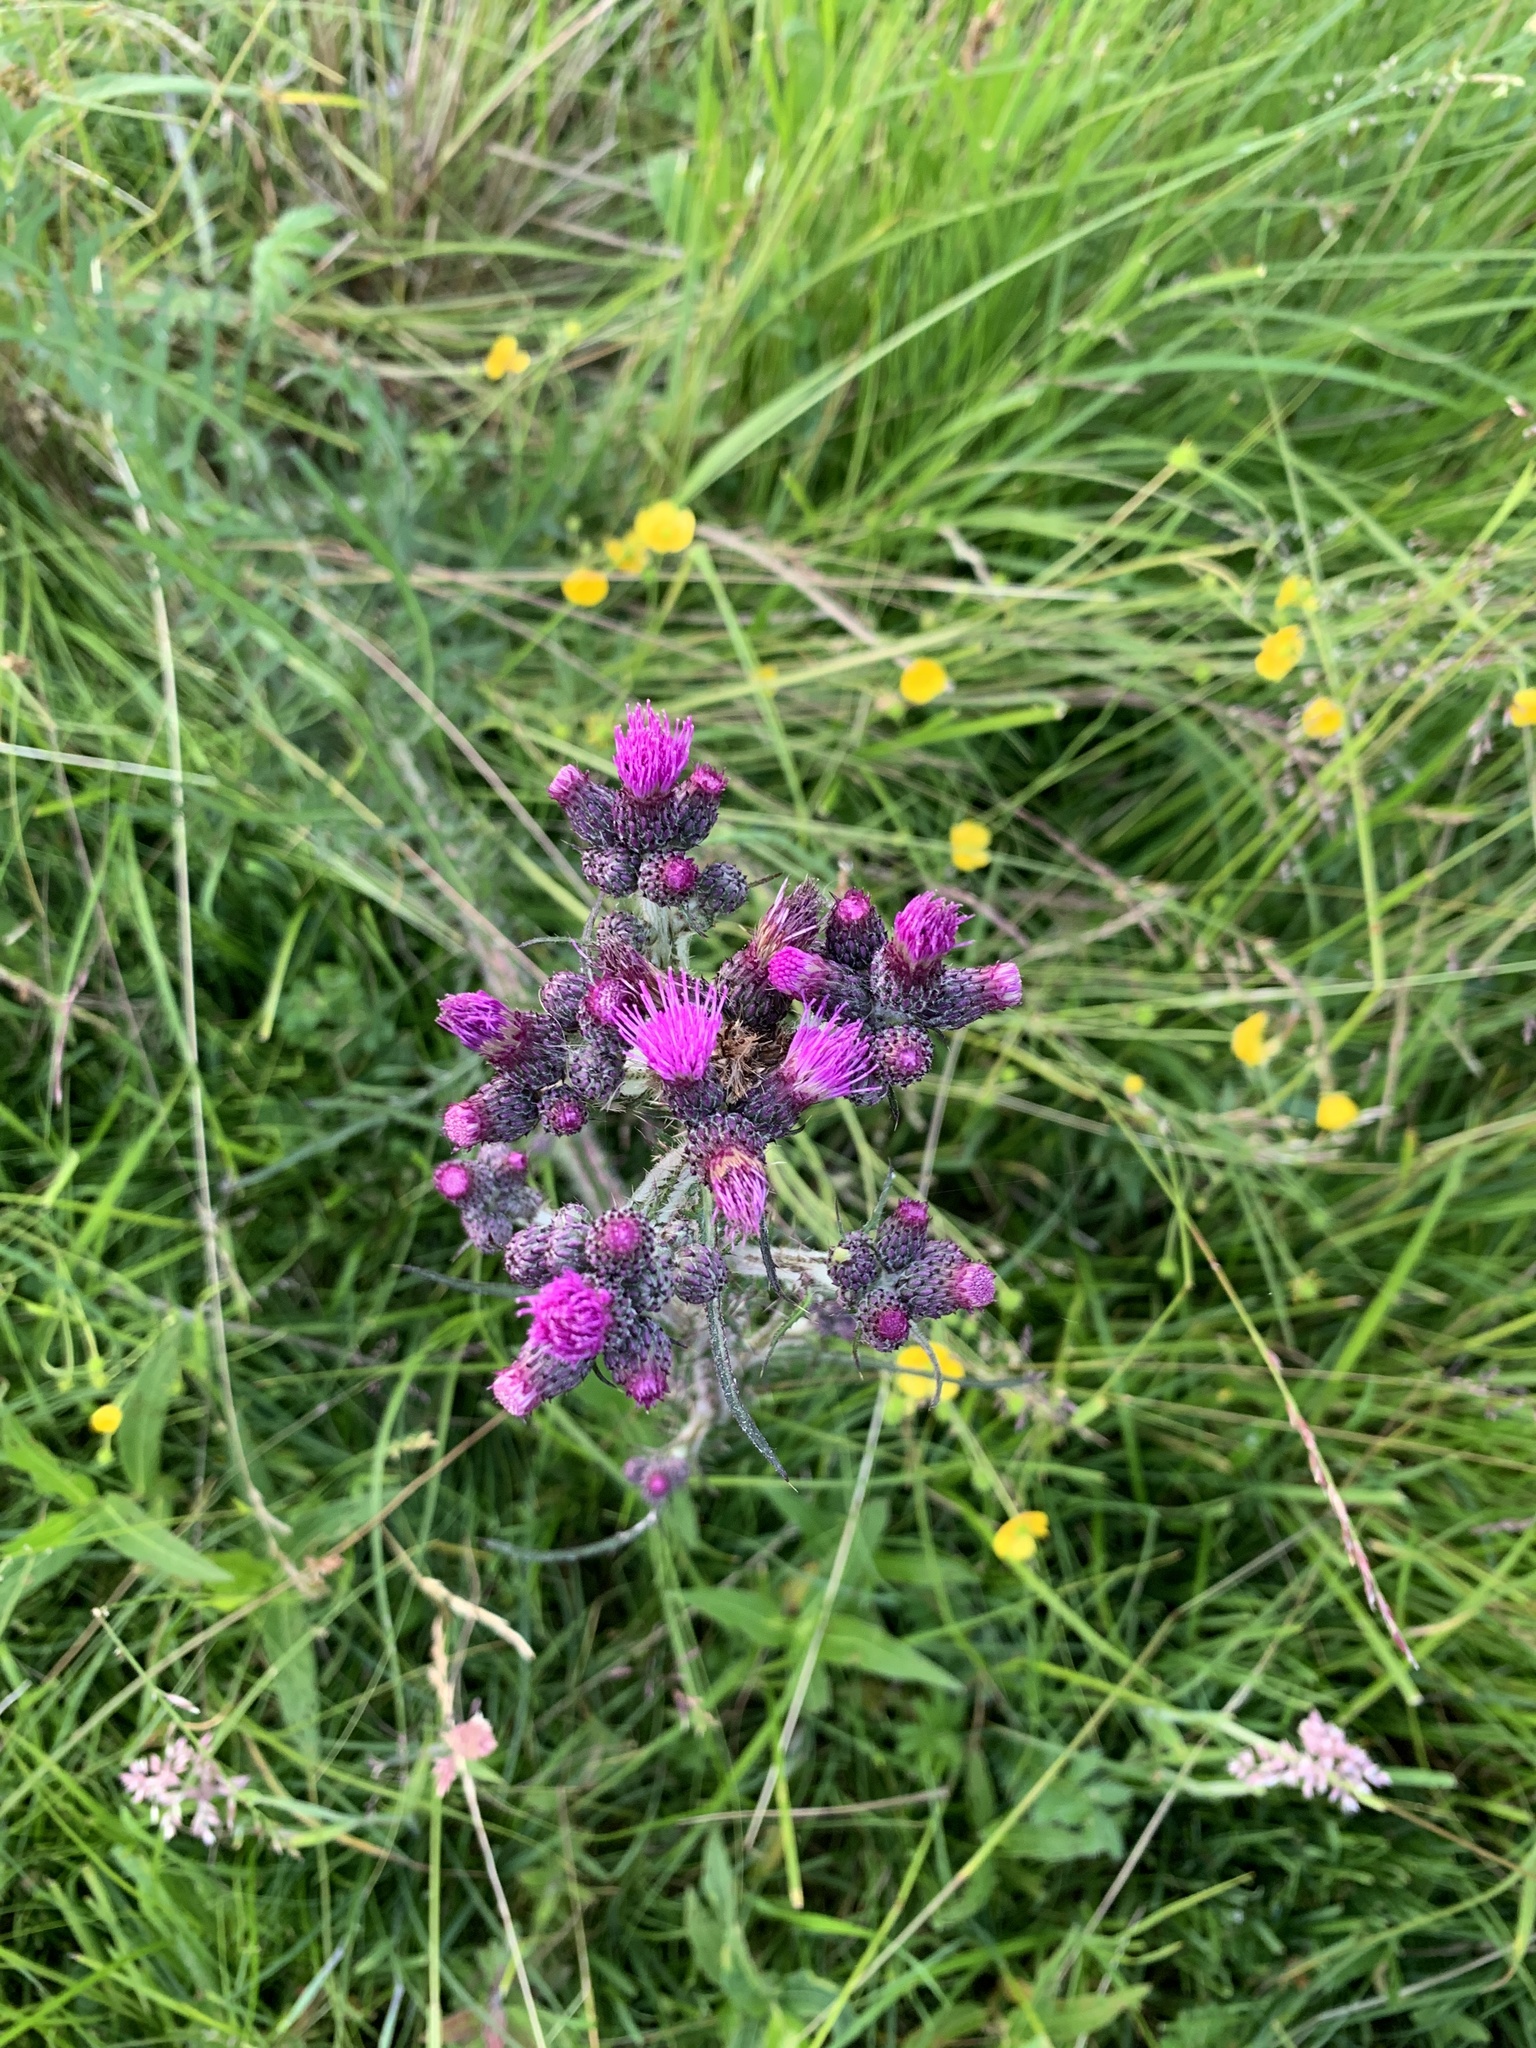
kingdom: Plantae
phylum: Tracheophyta
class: Magnoliopsida
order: Asterales
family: Asteraceae
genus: Cirsium
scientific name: Cirsium palustre
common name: Marsh thistle
